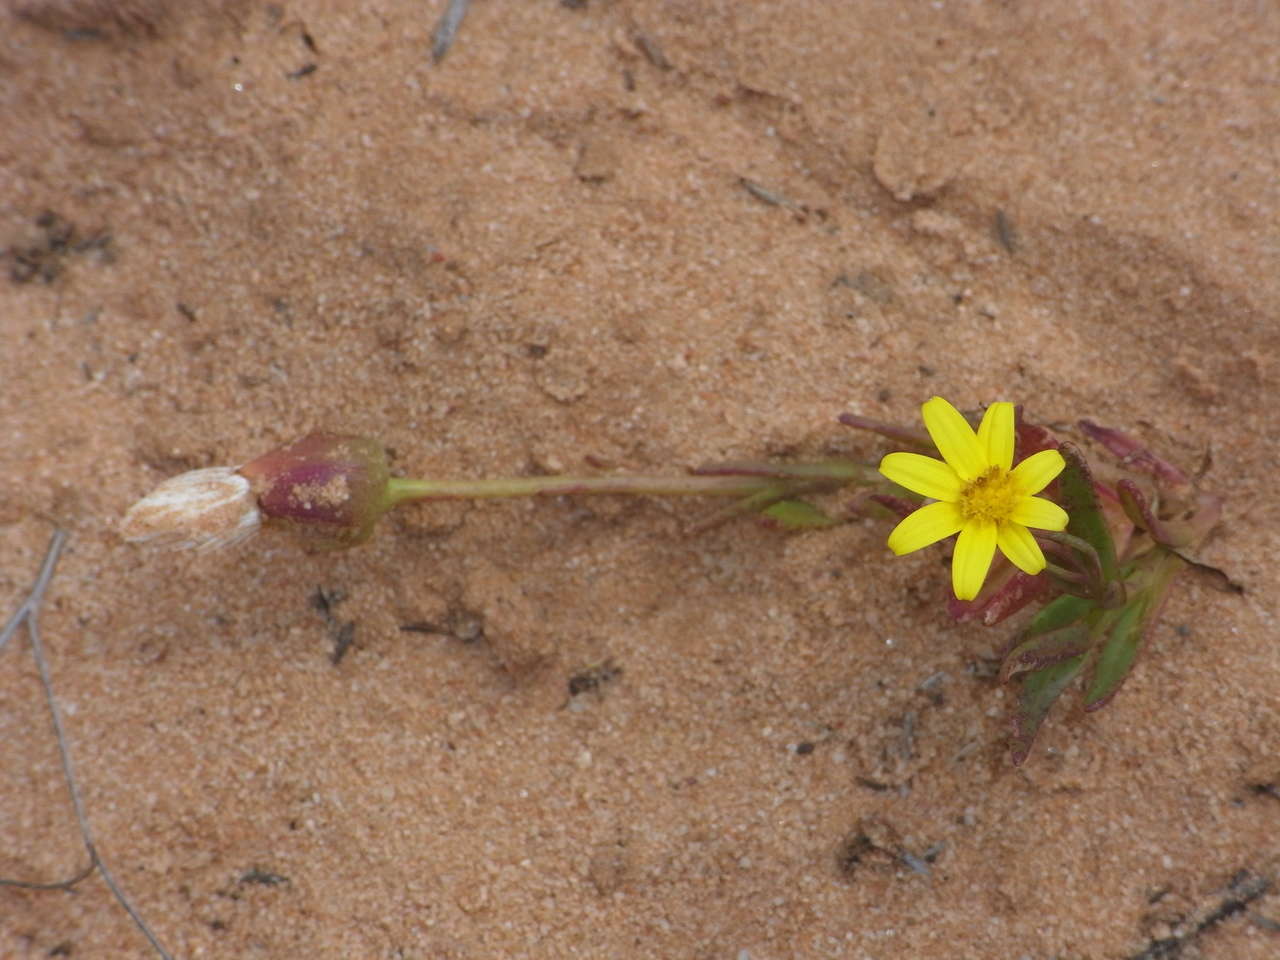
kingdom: Plantae
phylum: Tracheophyta
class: Magnoliopsida
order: Asterales
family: Asteraceae
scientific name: Asteraceae
